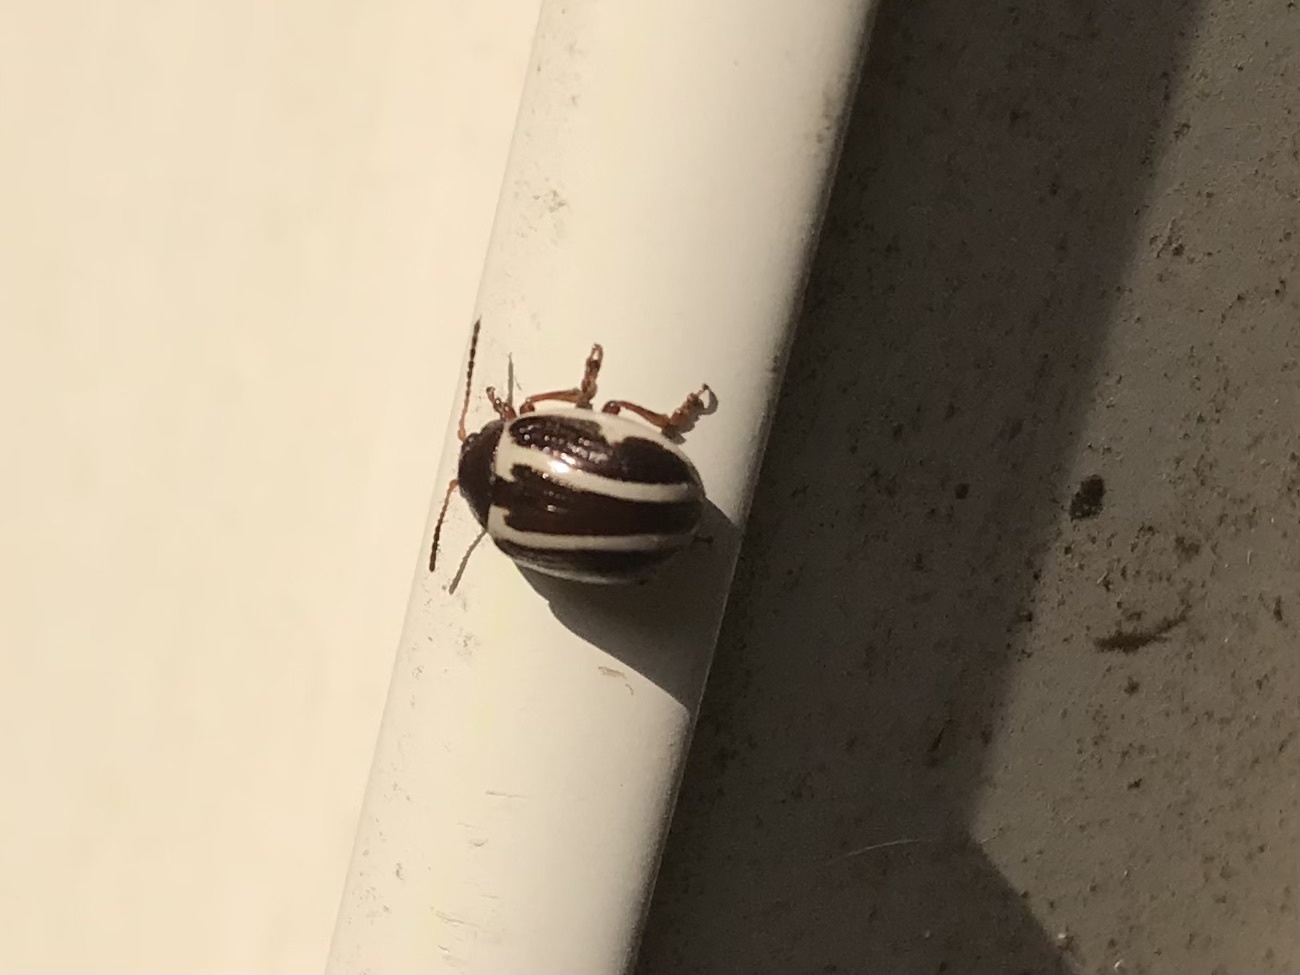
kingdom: Animalia
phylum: Arthropoda
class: Insecta
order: Coleoptera
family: Chrysomelidae
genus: Calligrapha
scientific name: Calligrapha
